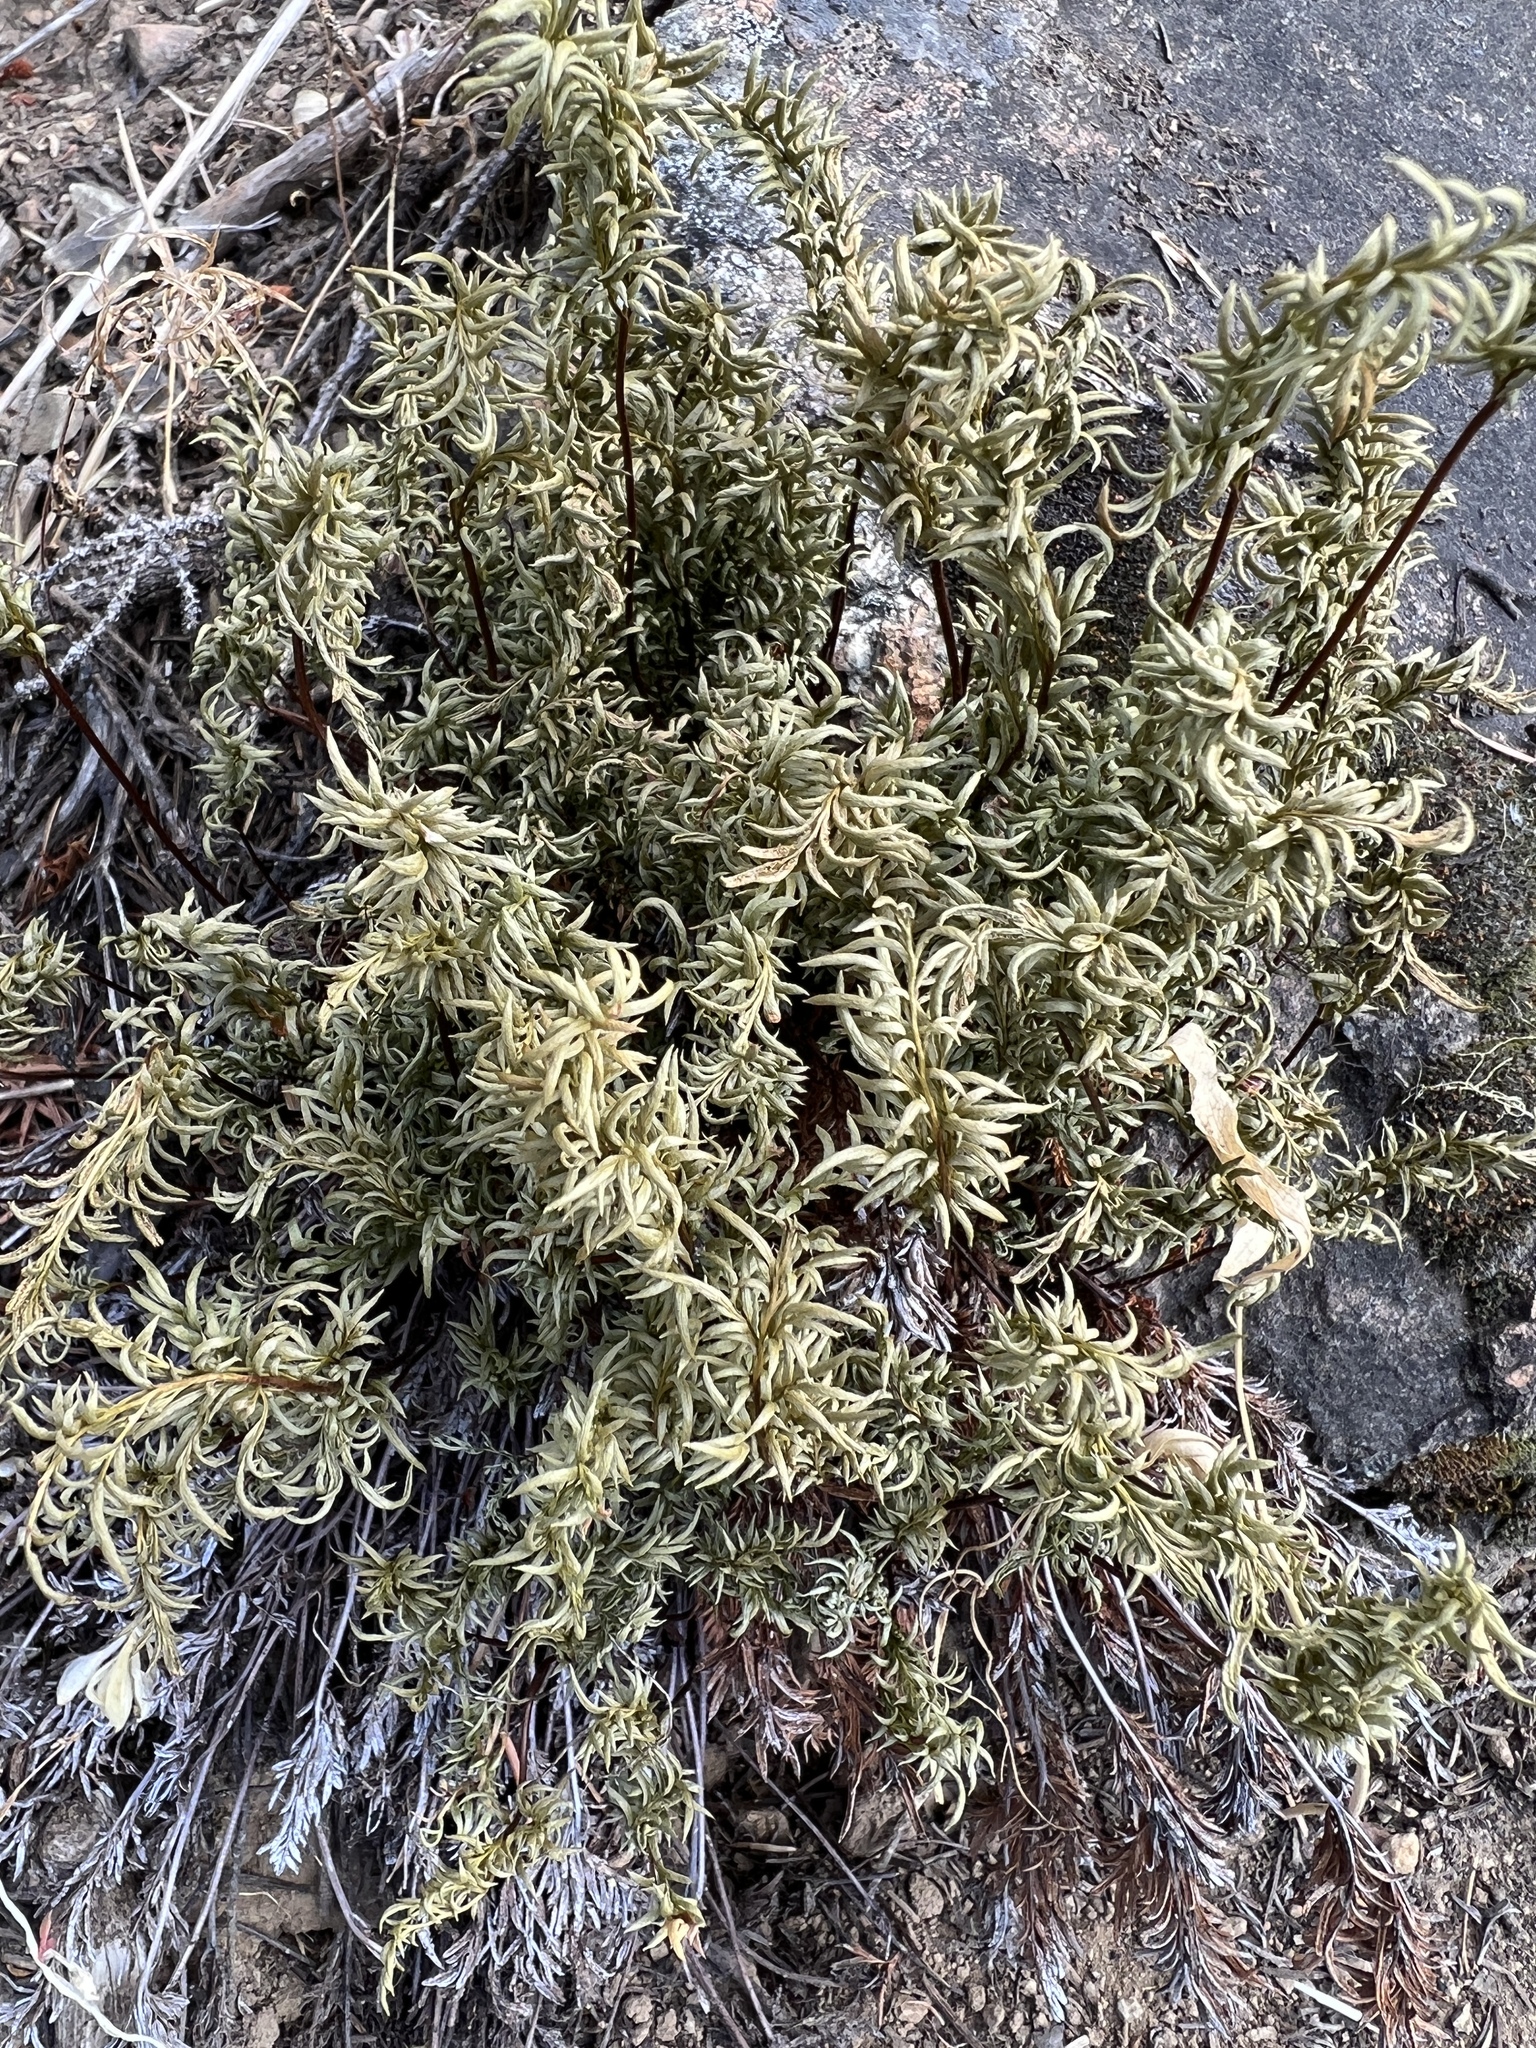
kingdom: Plantae
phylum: Tracheophyta
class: Polypodiopsida
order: Polypodiales
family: Pteridaceae
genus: Aspidotis
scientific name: Aspidotis densa
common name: Indian's dream
